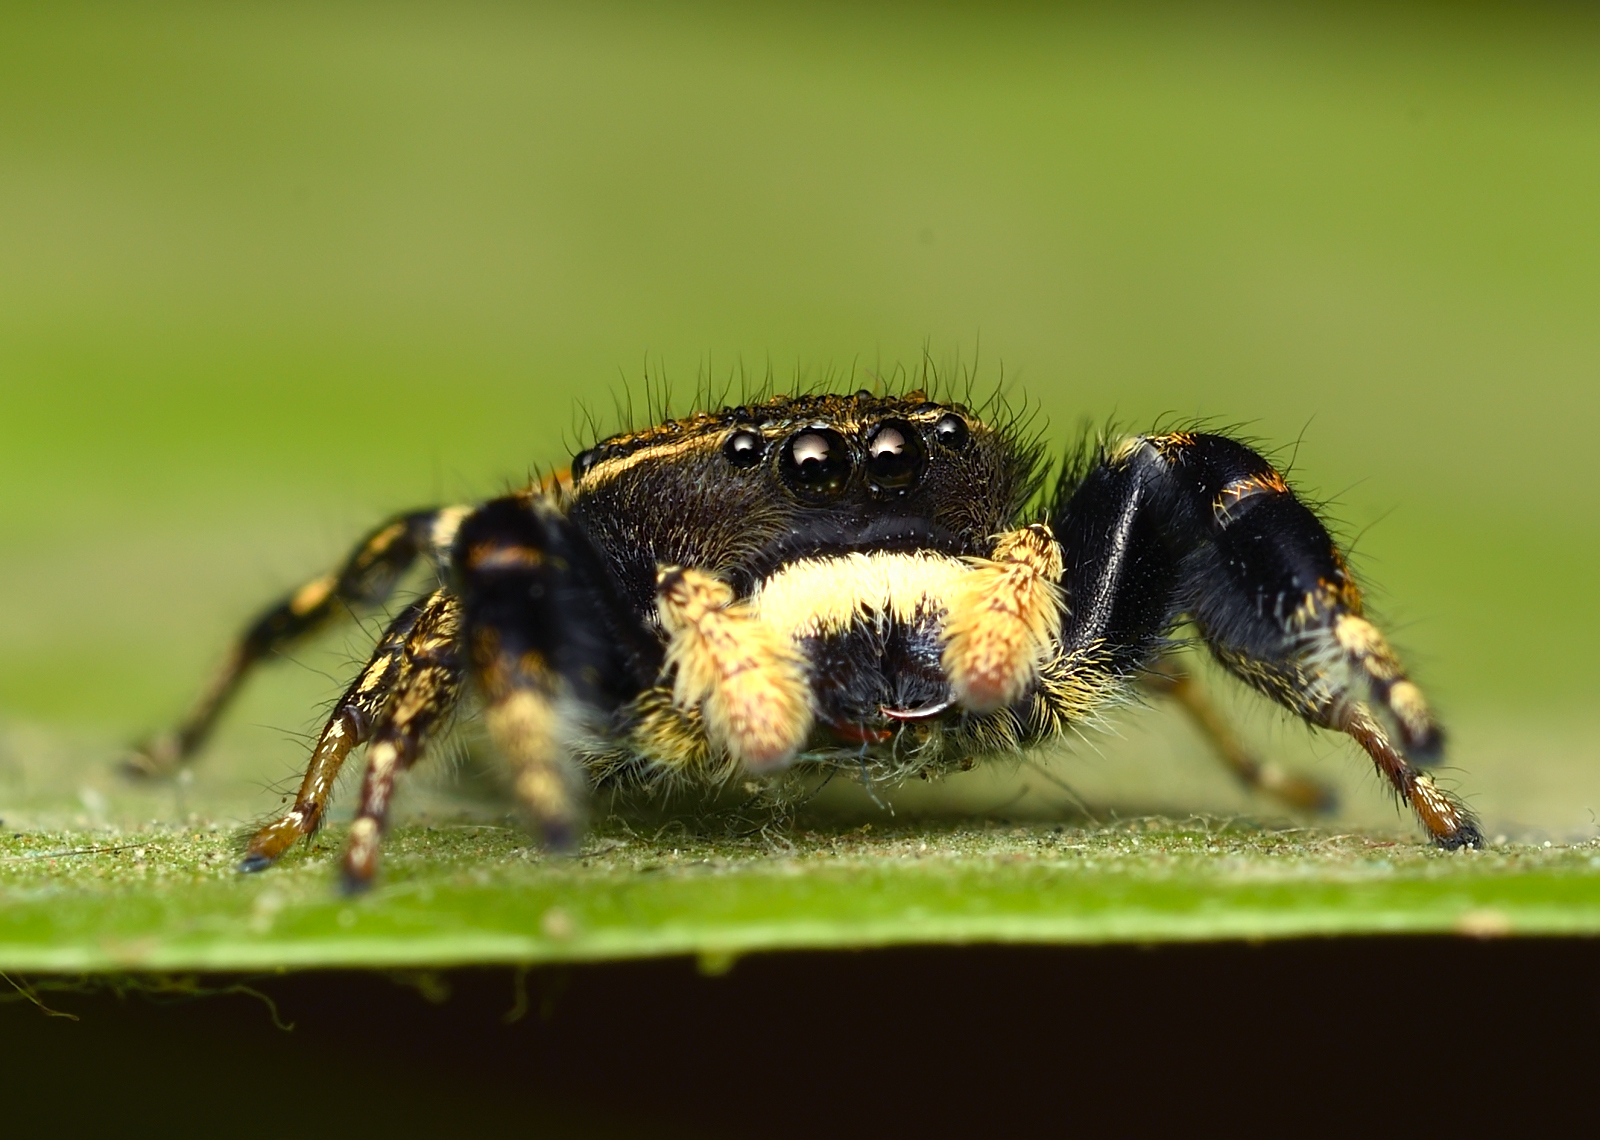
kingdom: Animalia
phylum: Arthropoda
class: Arachnida
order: Araneae
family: Salticidae
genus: Rhene
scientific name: Rhene rubrigera
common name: Jumping spider
